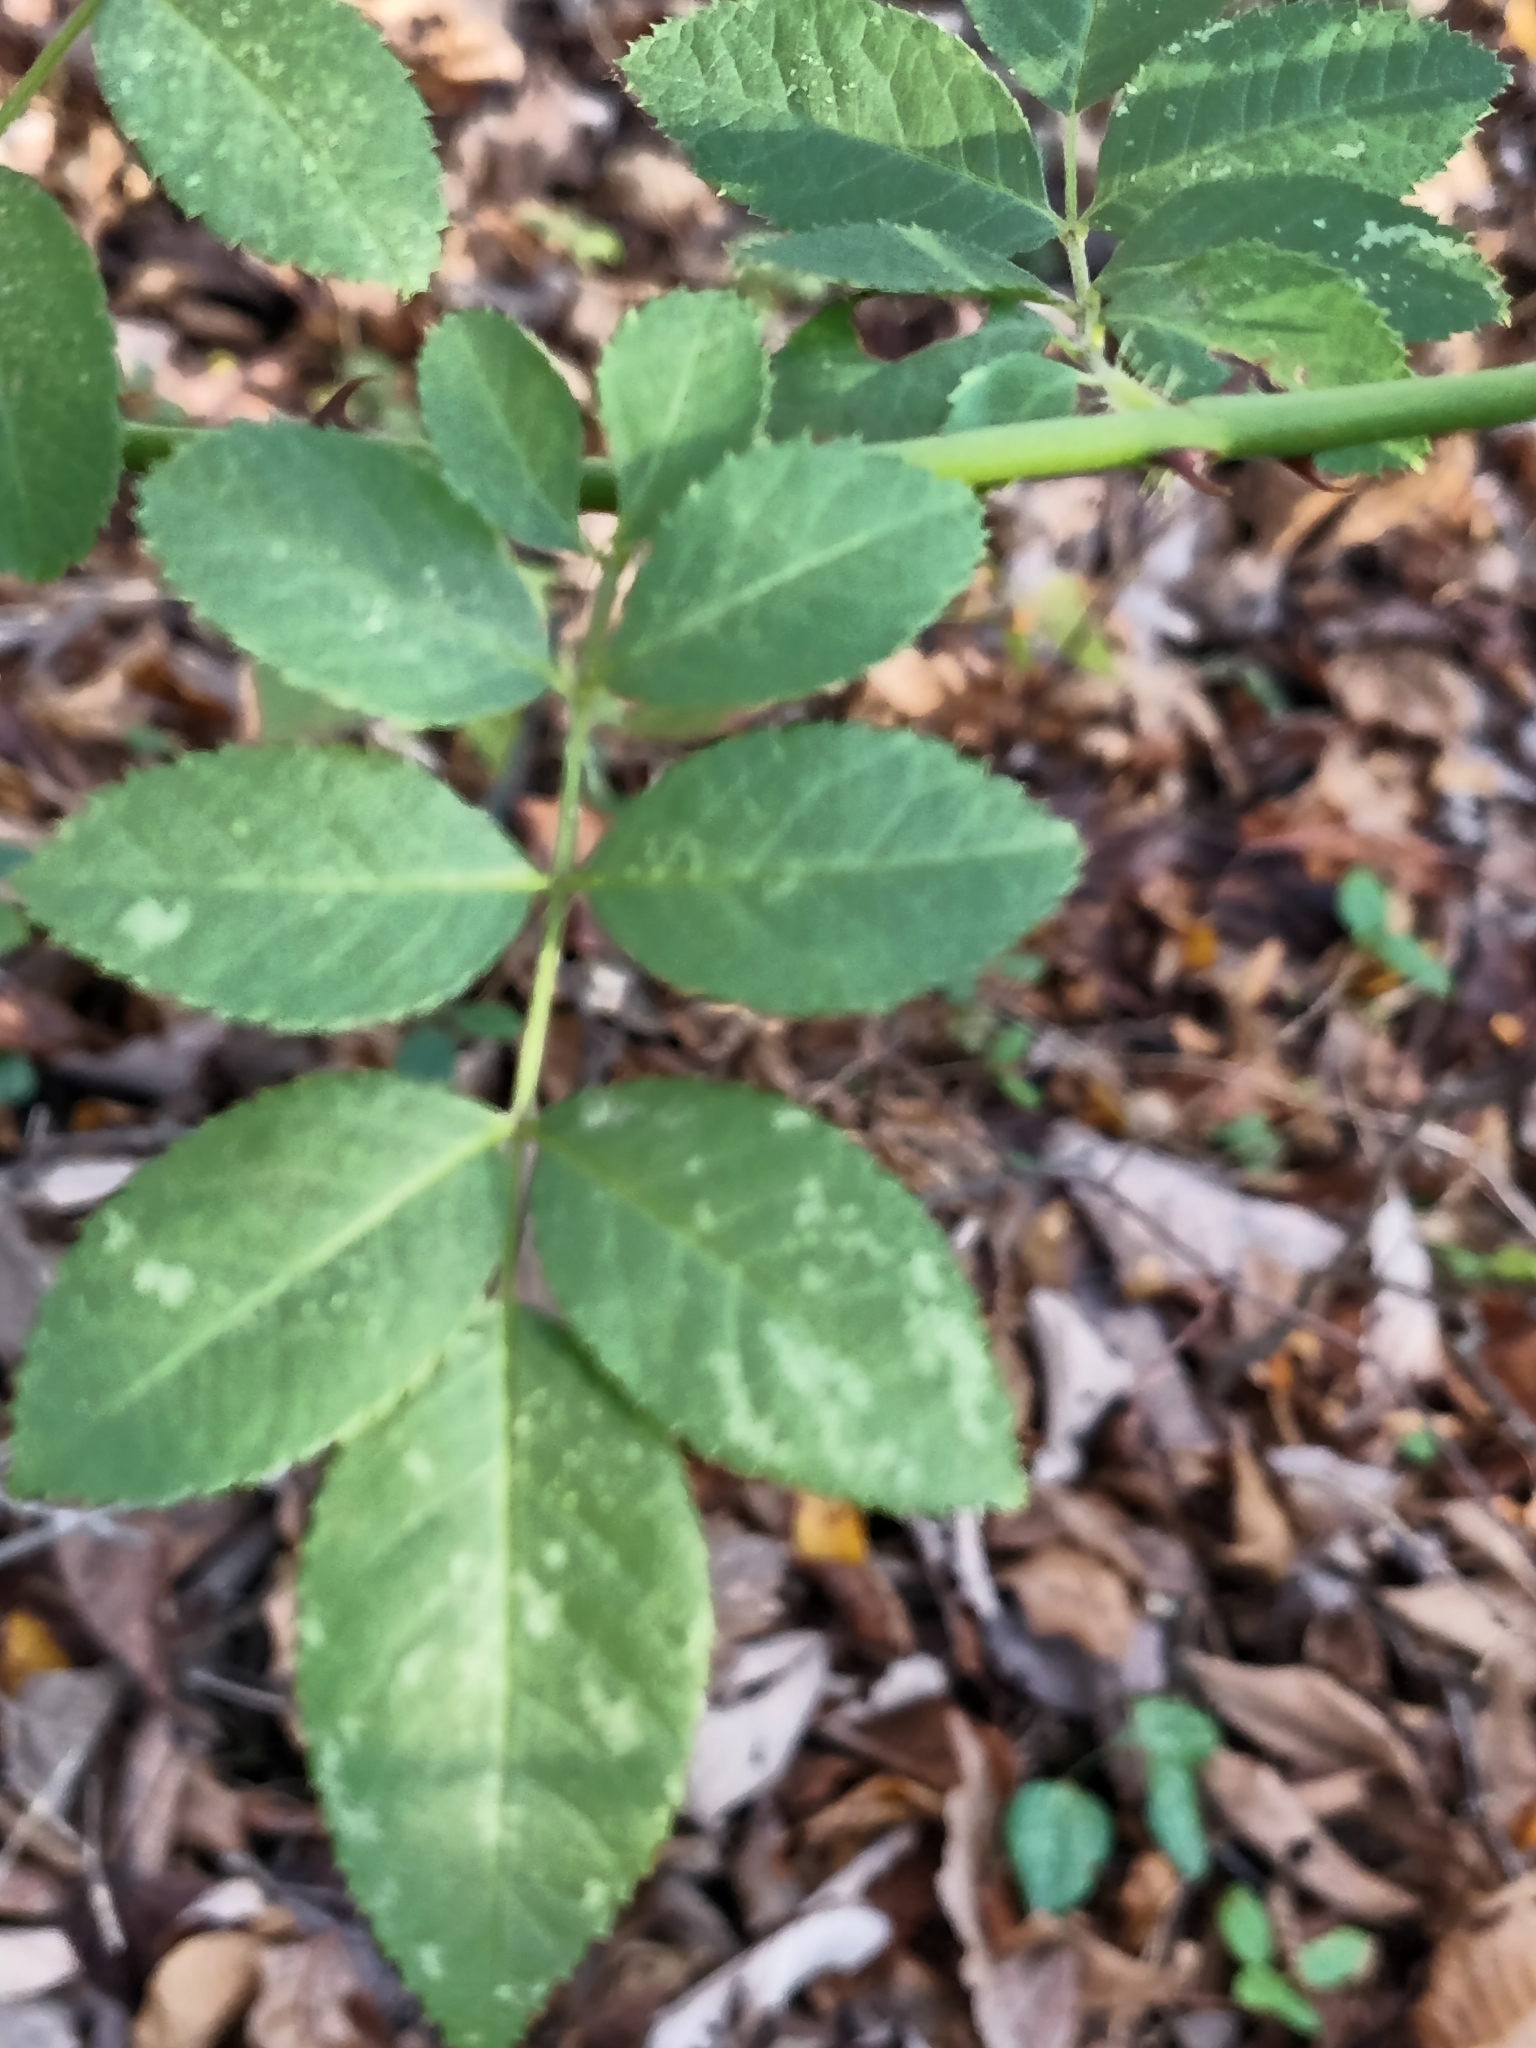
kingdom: Plantae
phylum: Tracheophyta
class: Magnoliopsida
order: Rosales
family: Rosaceae
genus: Rosa
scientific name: Rosa multiflora
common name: Multiflora rose
